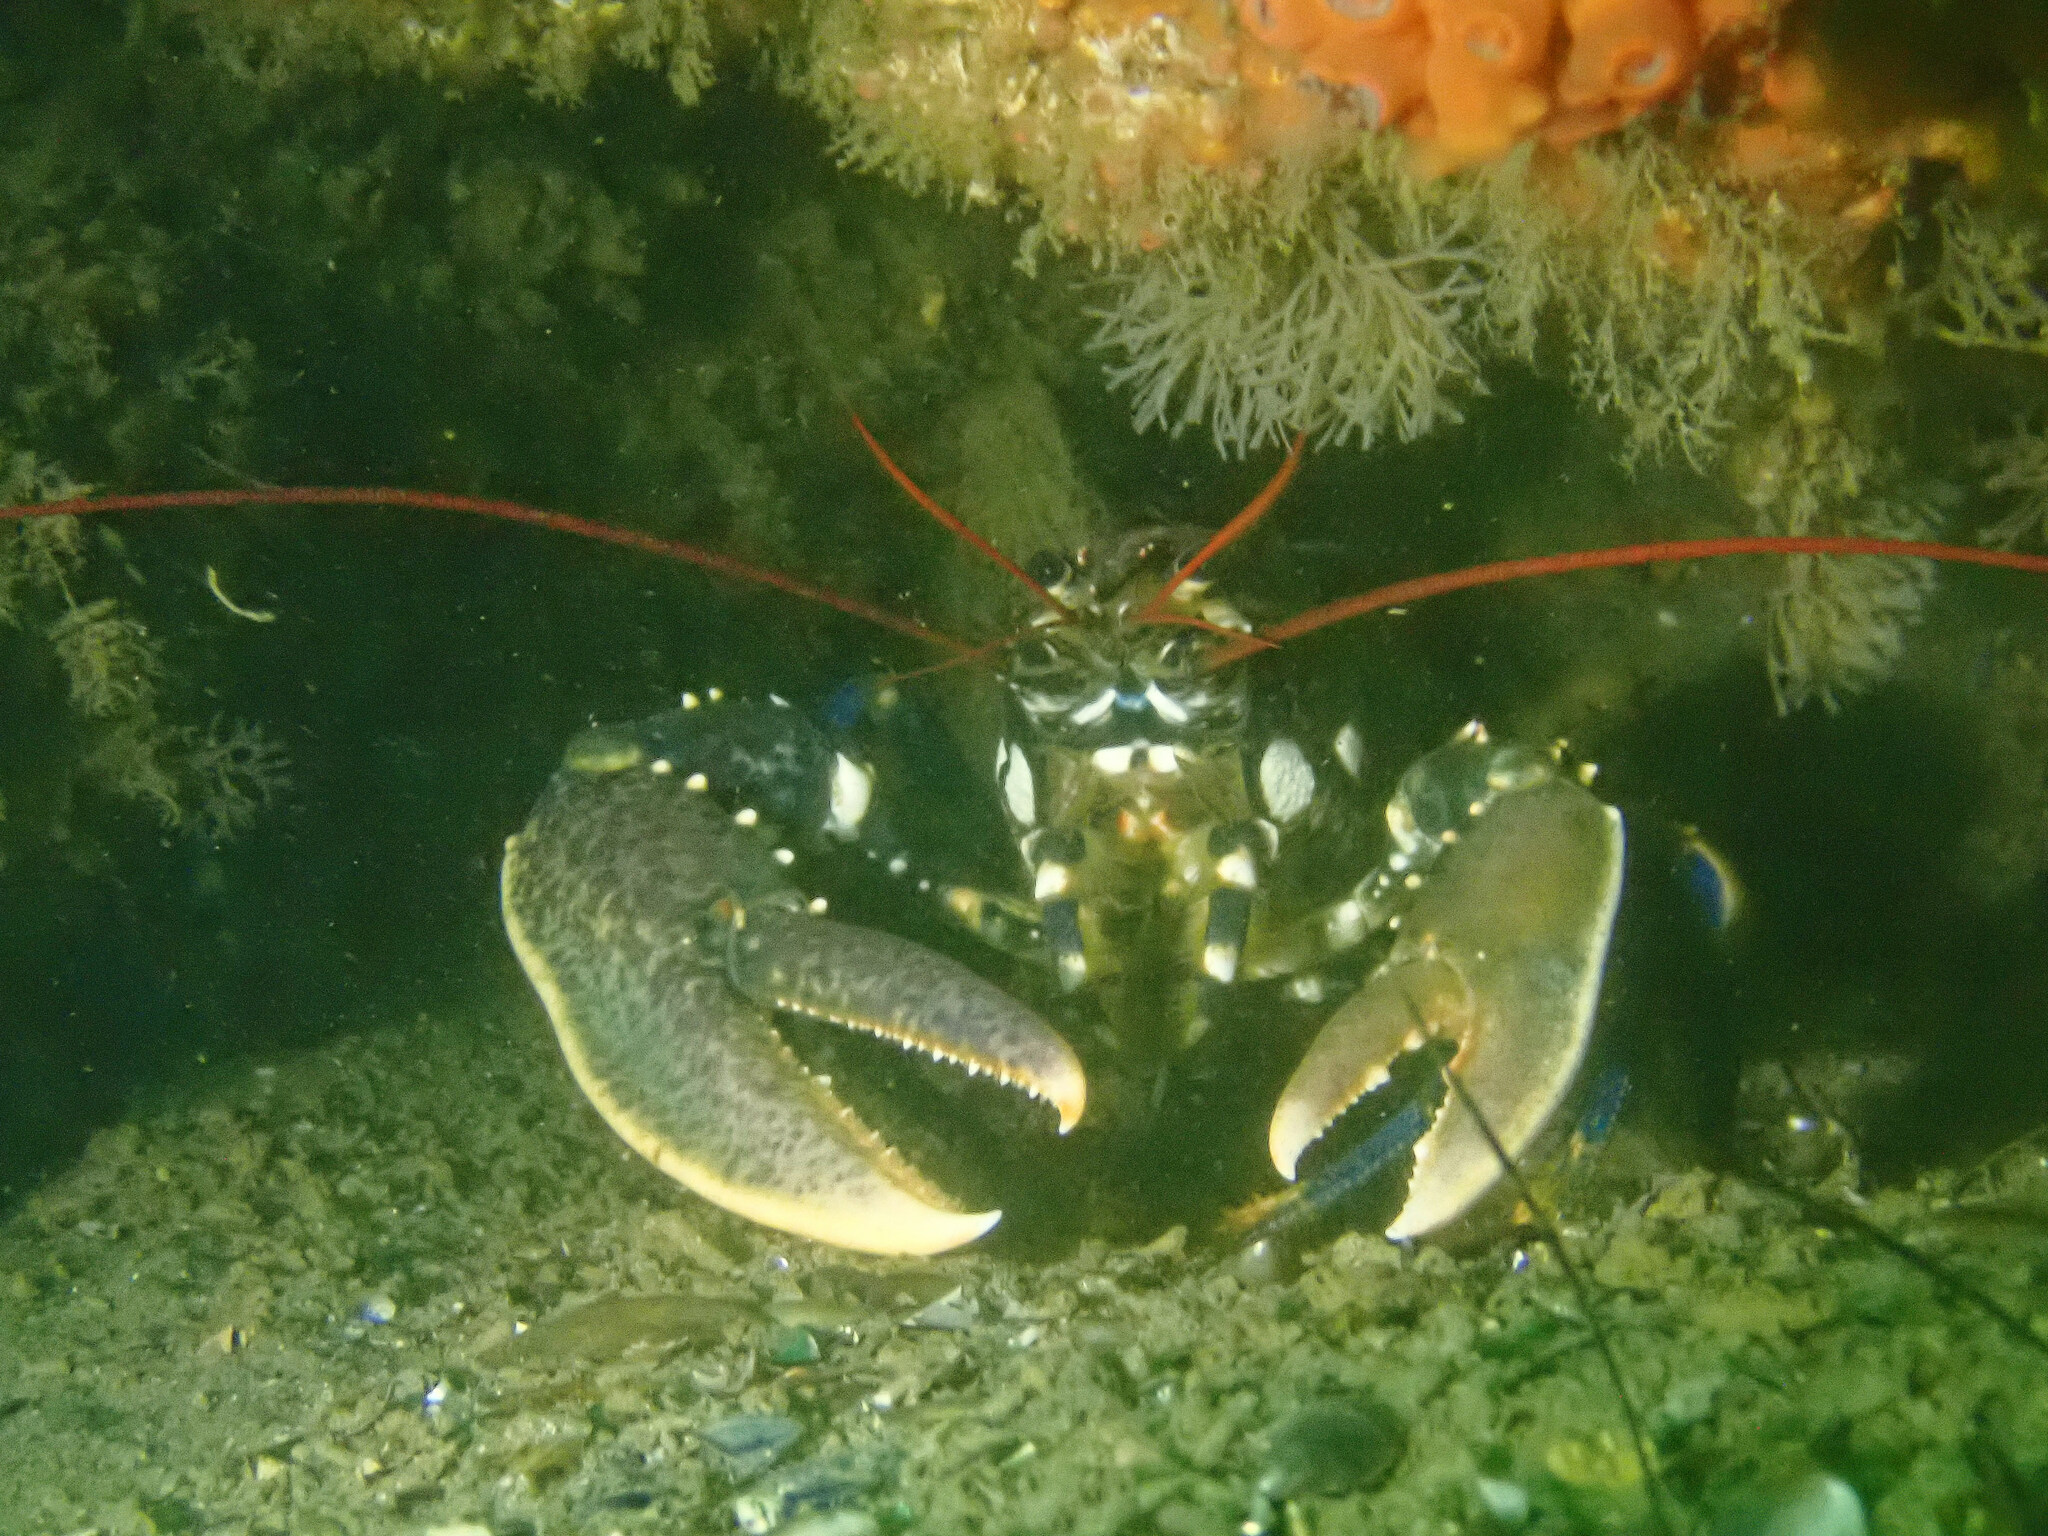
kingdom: Animalia
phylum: Arthropoda
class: Malacostraca
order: Decapoda
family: Nephropidae
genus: Homarus
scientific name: Homarus gammarus
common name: European lobster
